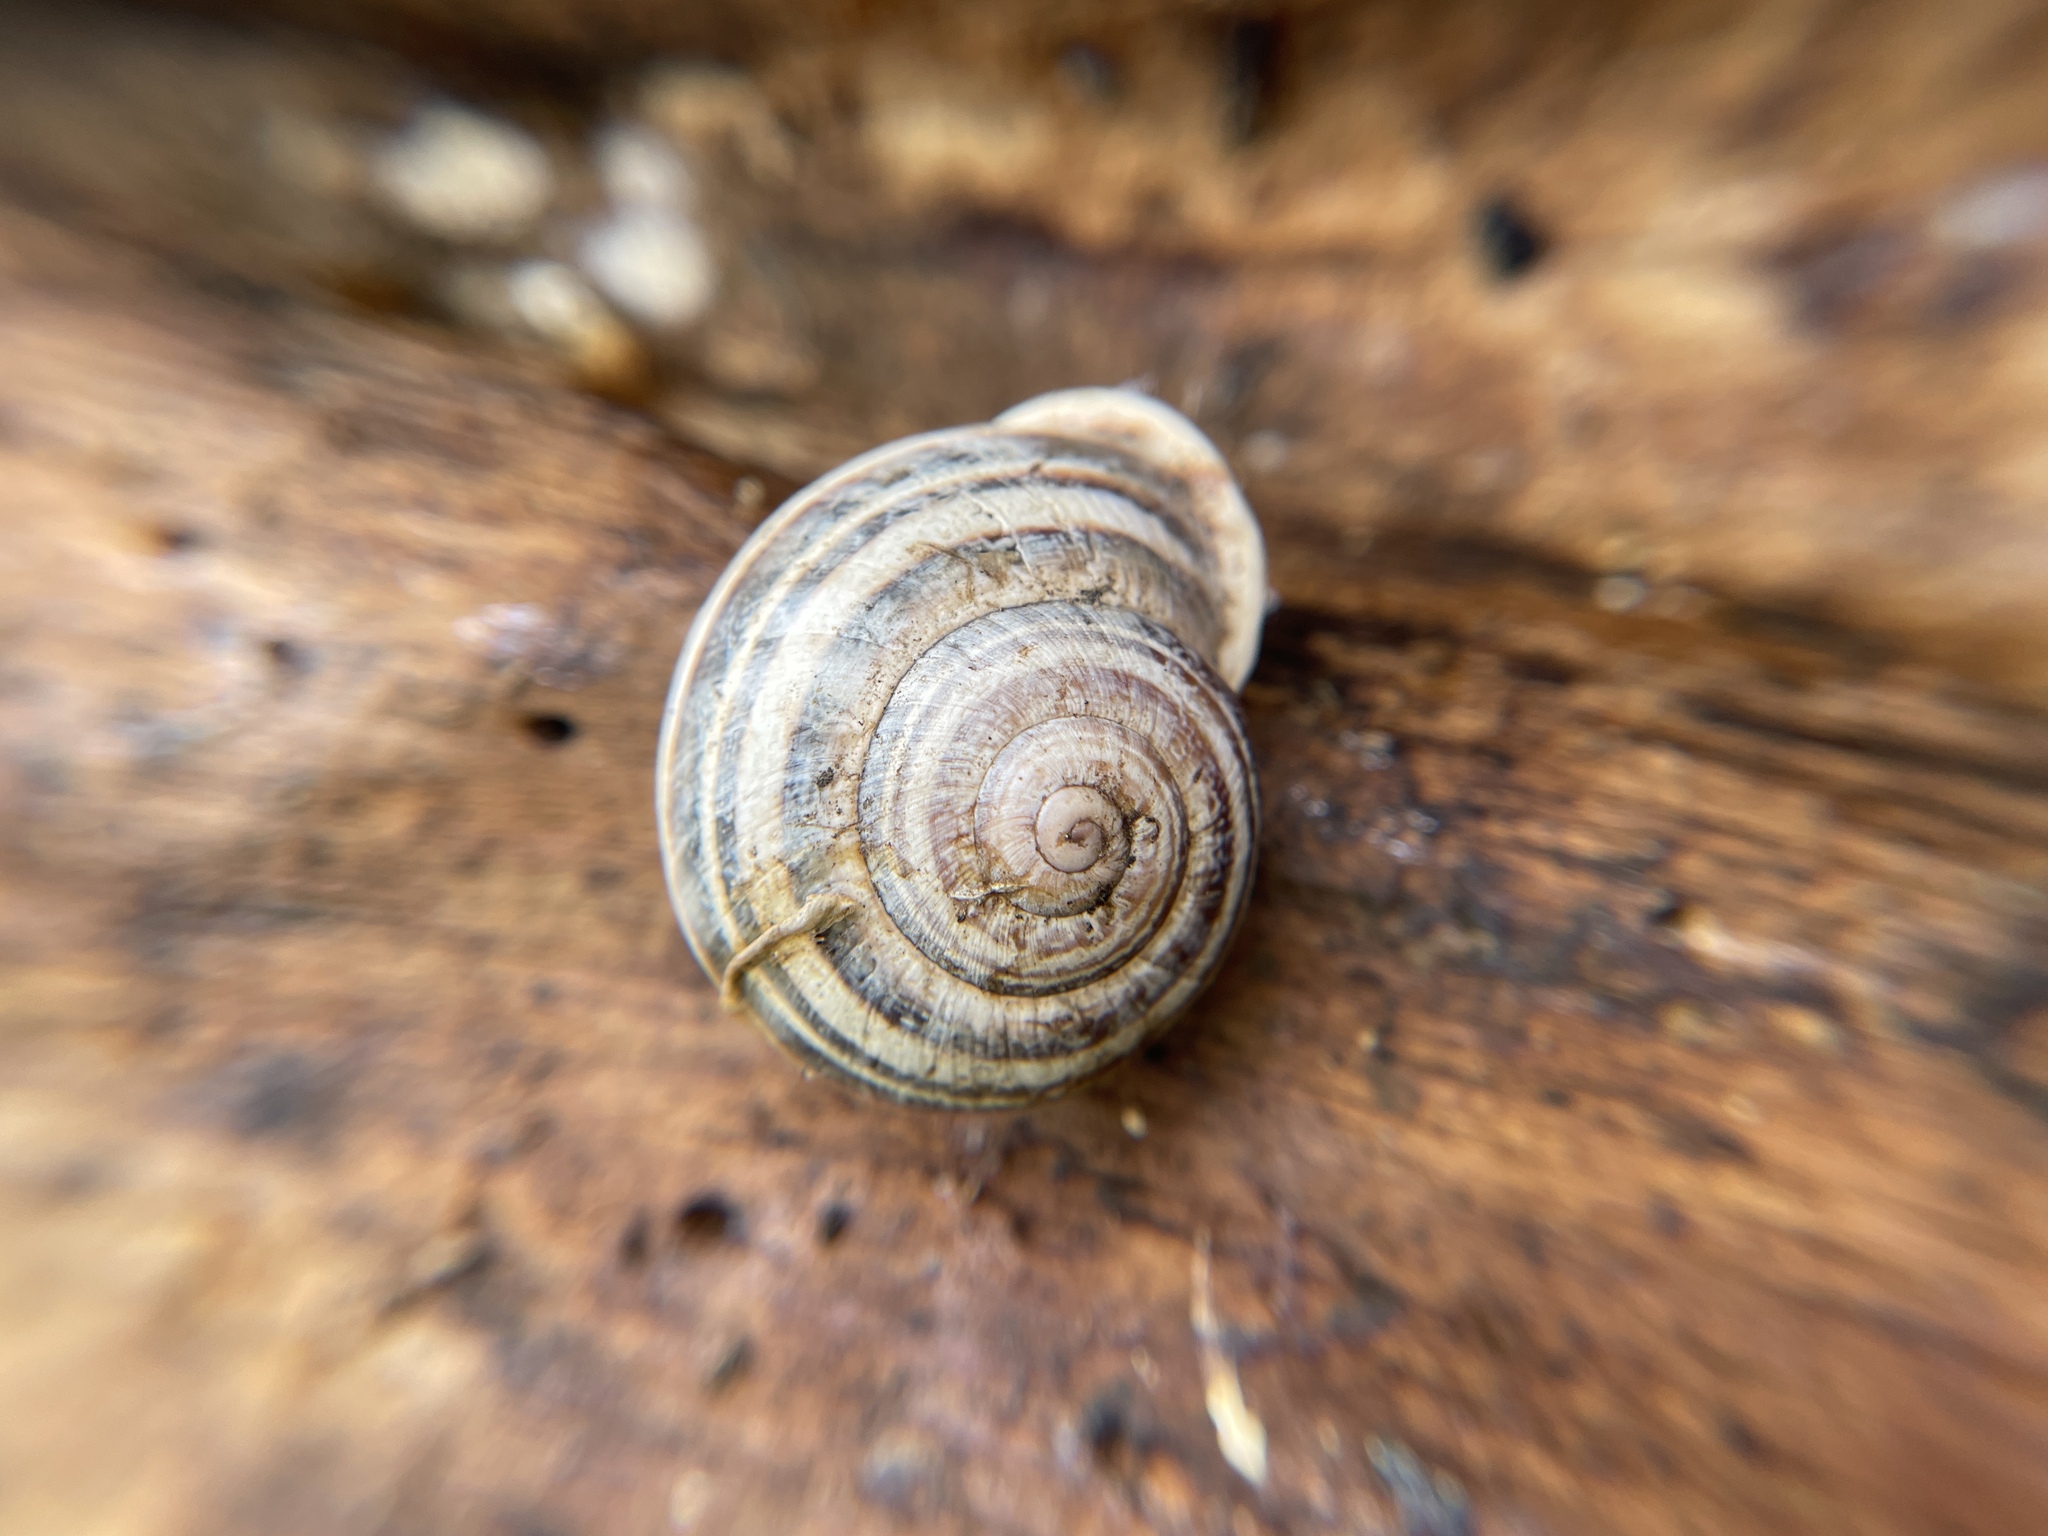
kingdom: Animalia
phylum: Mollusca
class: Gastropoda
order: Stylommatophora
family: Helicidae
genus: Otala
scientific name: Otala lactea
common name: Milk snail
